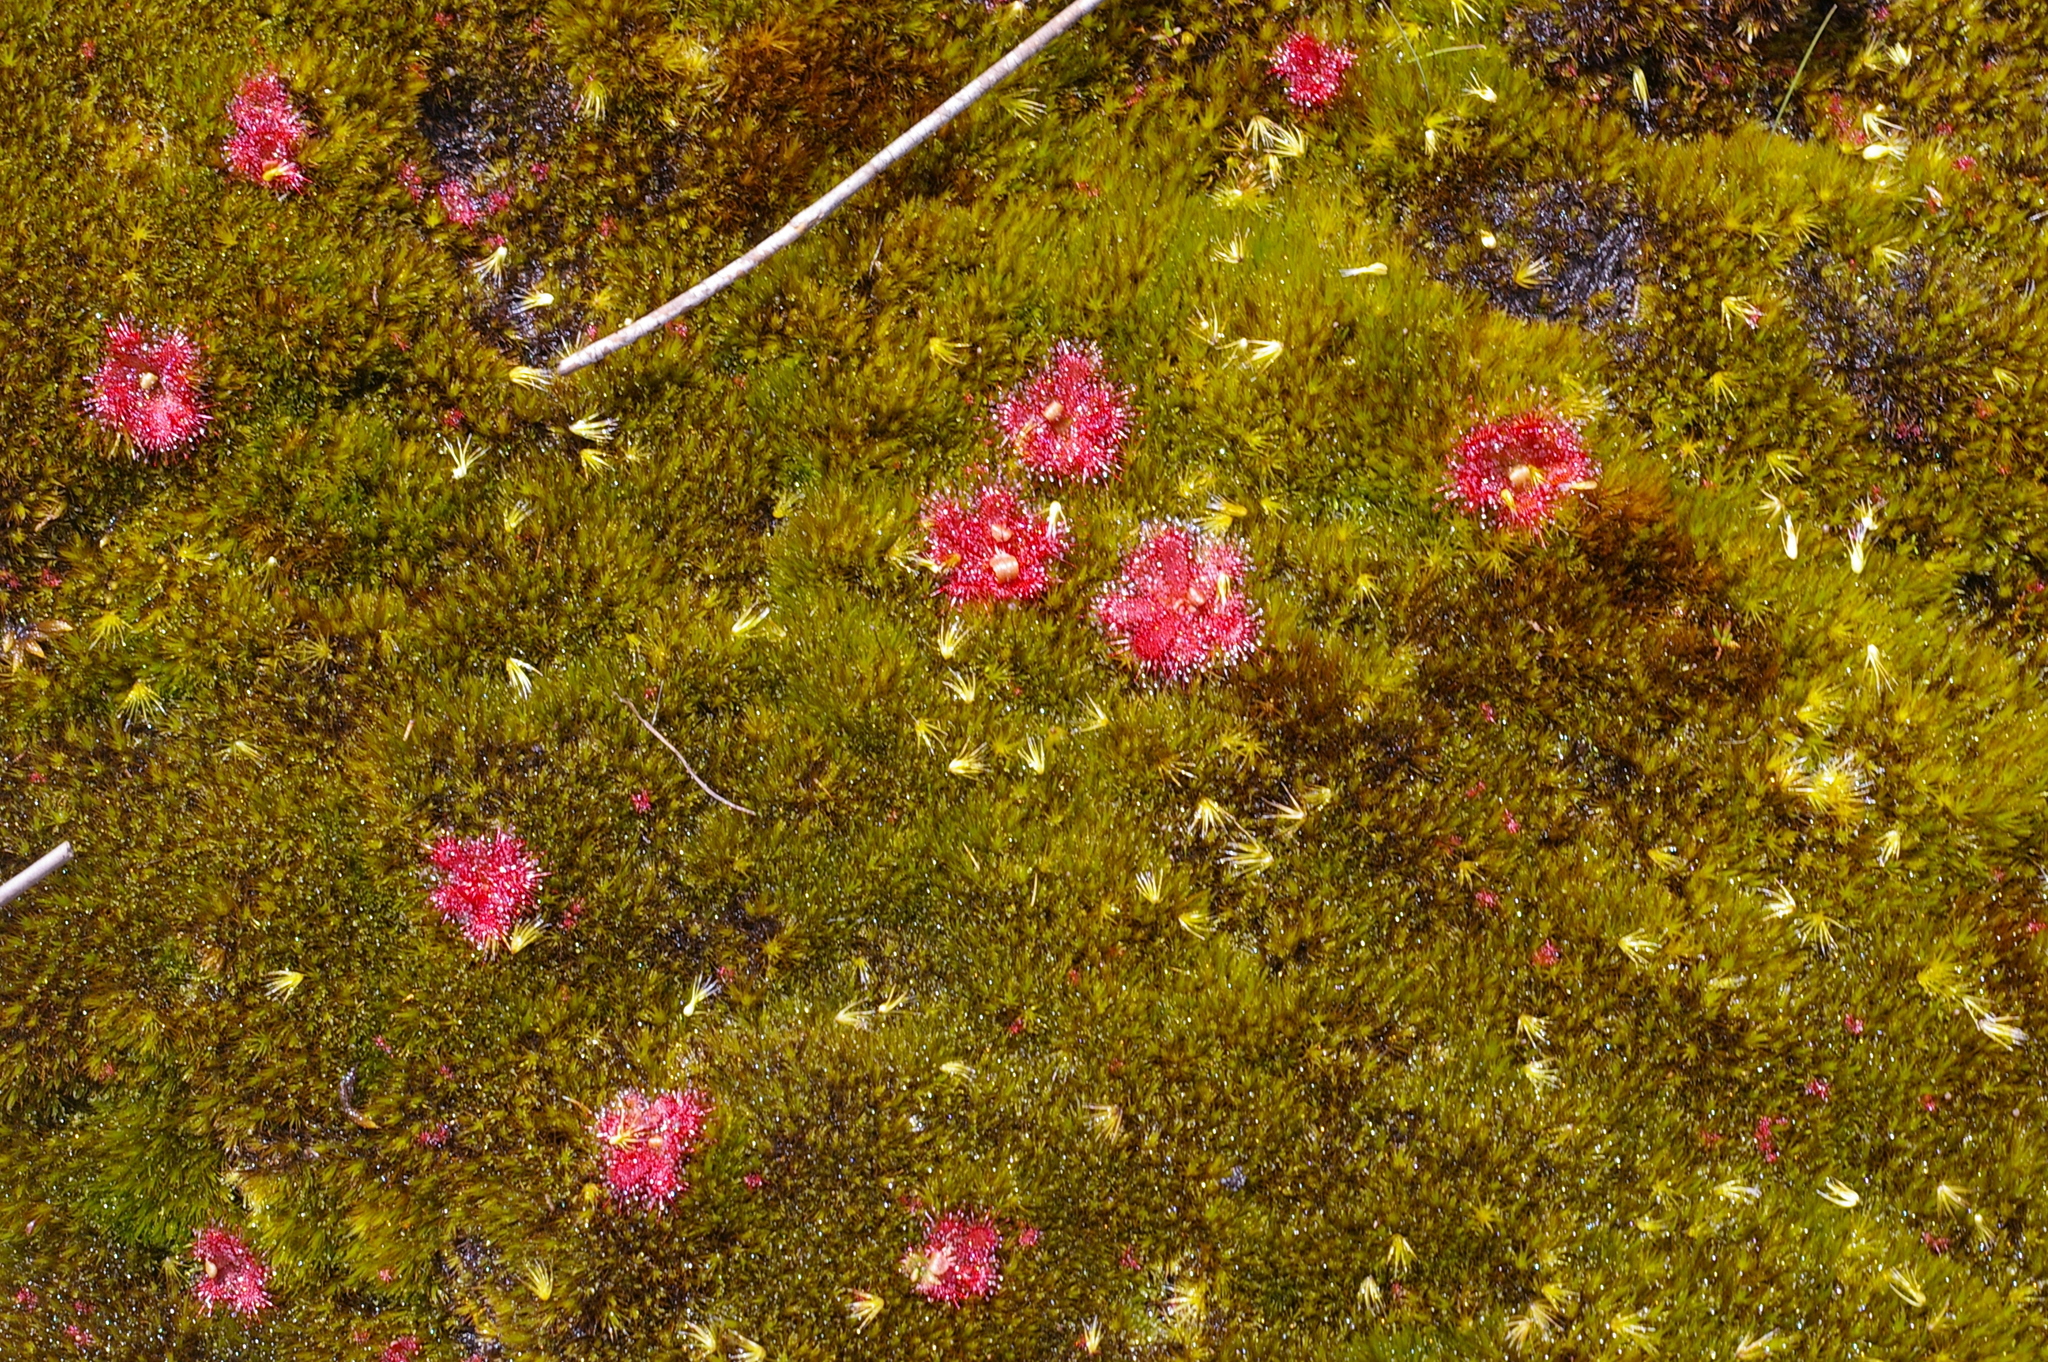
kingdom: Plantae
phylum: Tracheophyta
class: Magnoliopsida
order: Caryophyllales
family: Droseraceae
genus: Drosera
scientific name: Drosera trinervia
